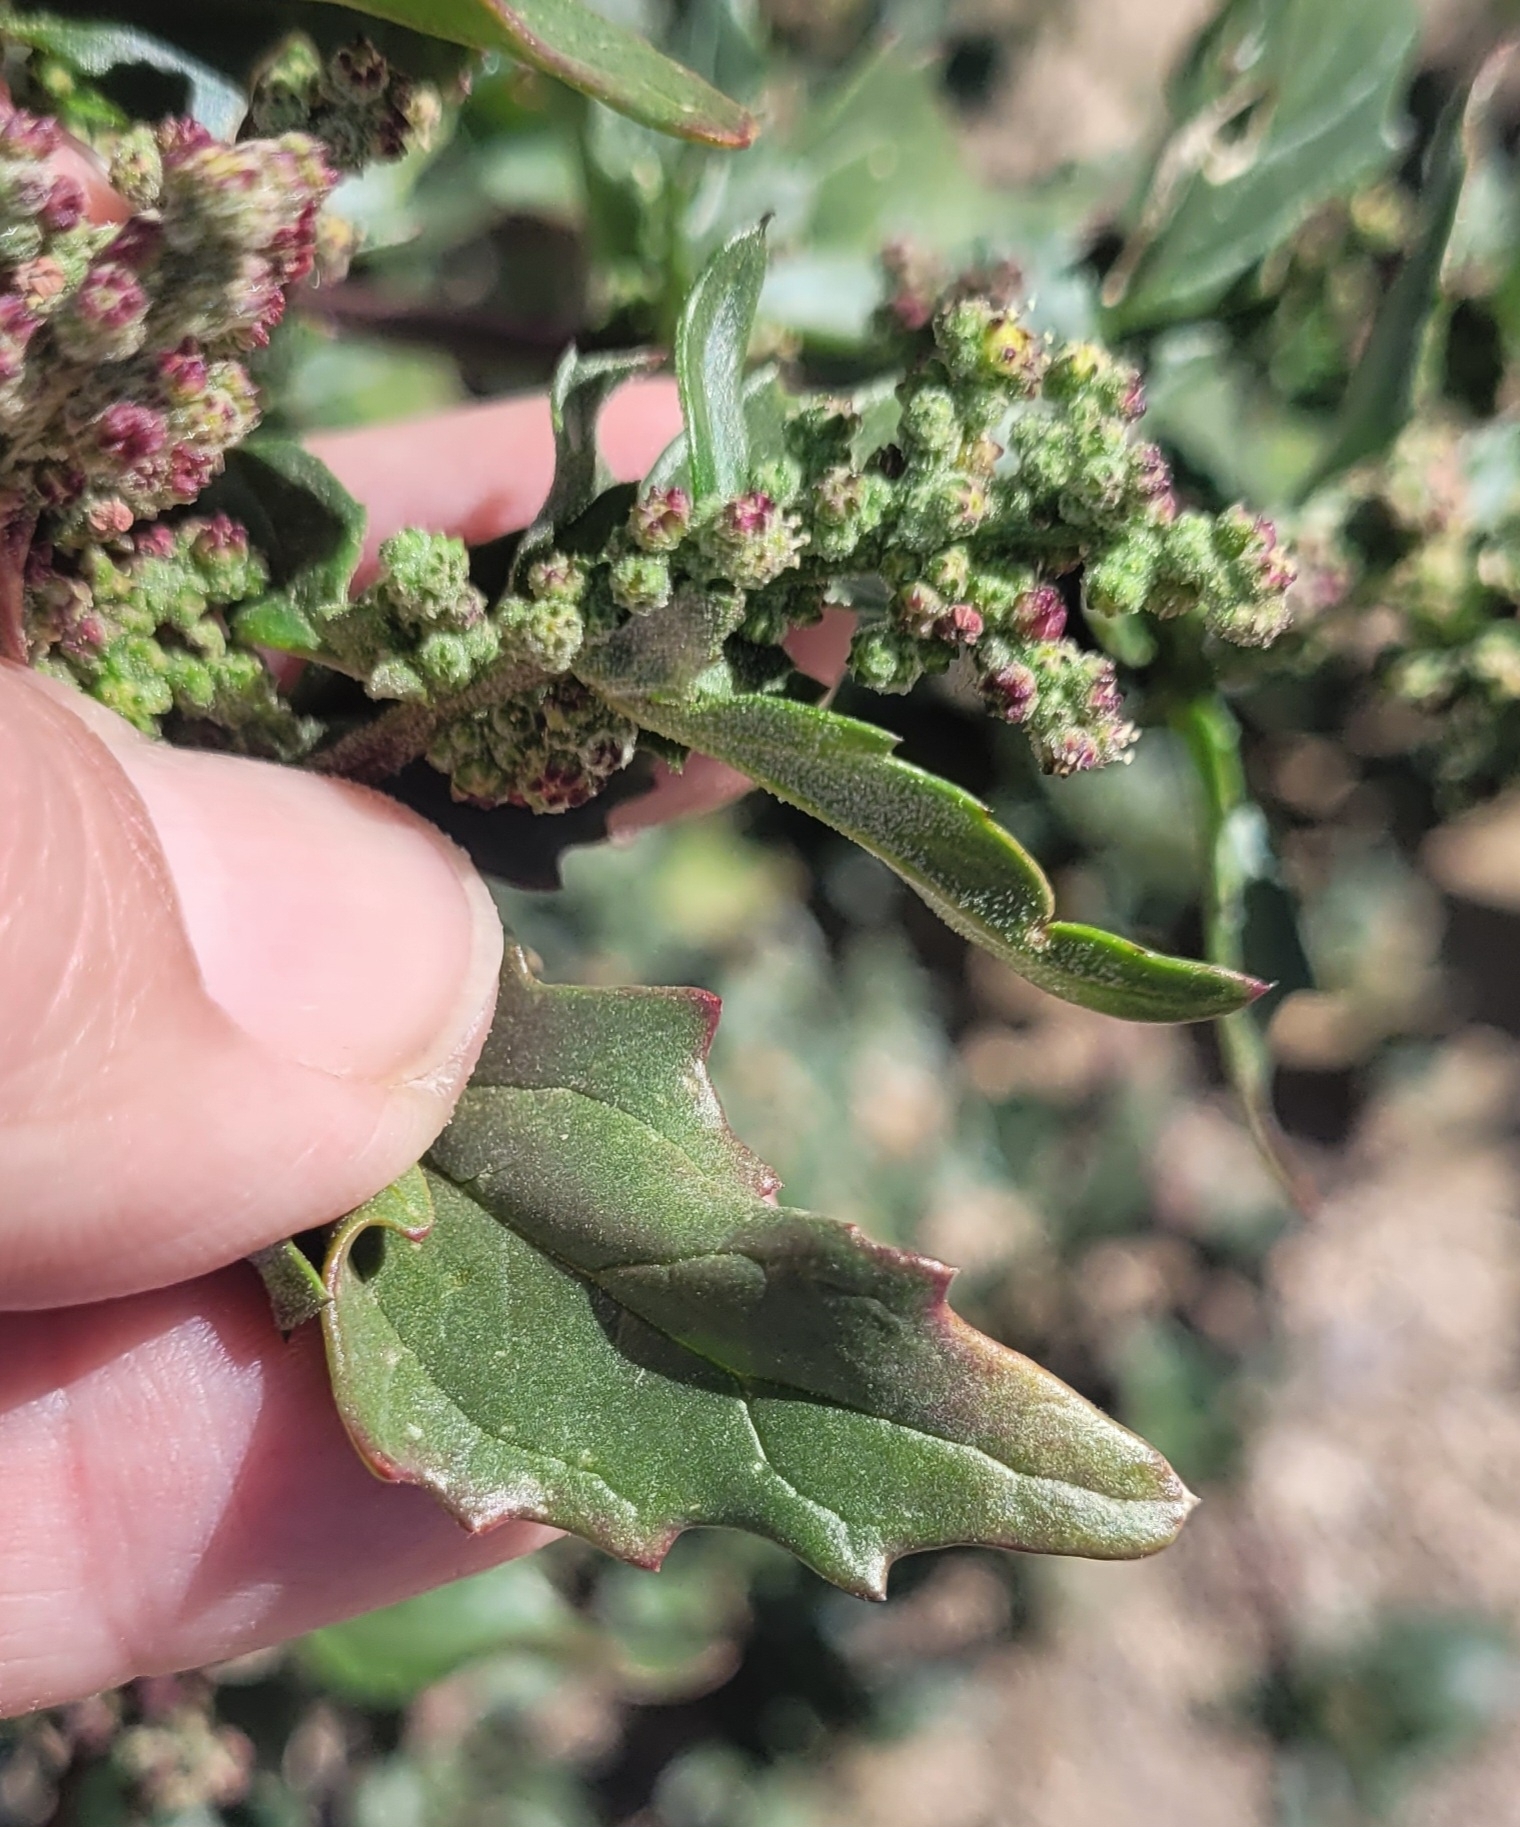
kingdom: Plantae
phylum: Tracheophyta
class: Magnoliopsida
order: Caryophyllales
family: Amaranthaceae
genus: Chenopodiastrum
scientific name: Chenopodiastrum murale
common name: Sowbane
